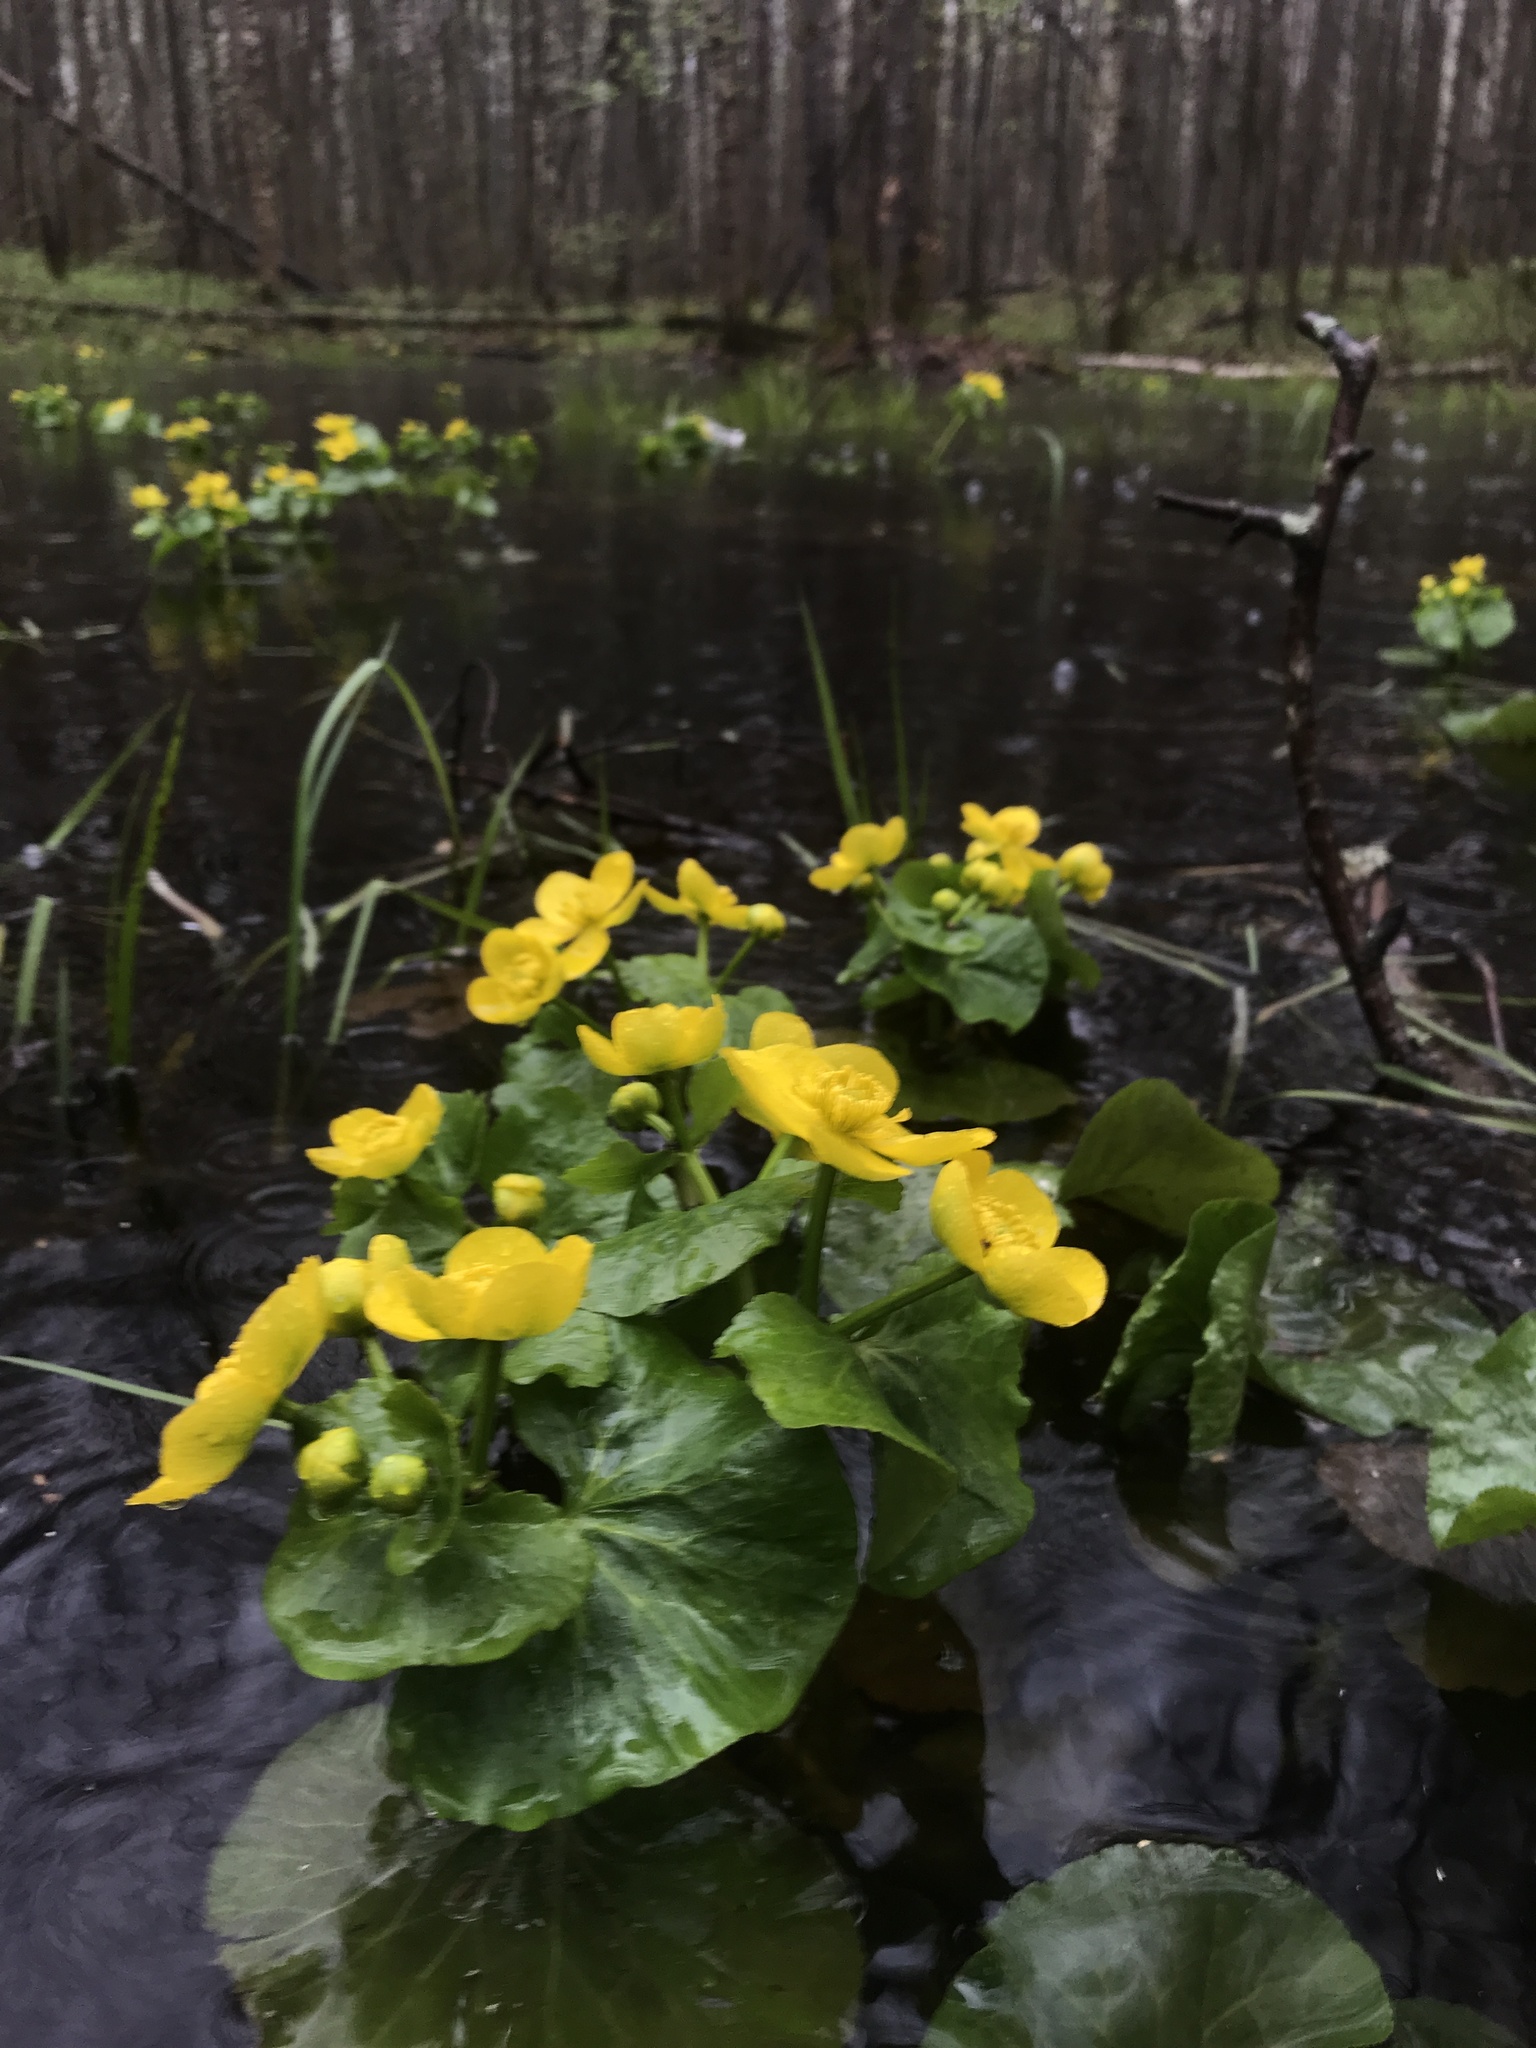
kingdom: Plantae
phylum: Tracheophyta
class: Magnoliopsida
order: Ranunculales
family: Ranunculaceae
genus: Caltha
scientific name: Caltha palustris
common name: Marsh marigold
